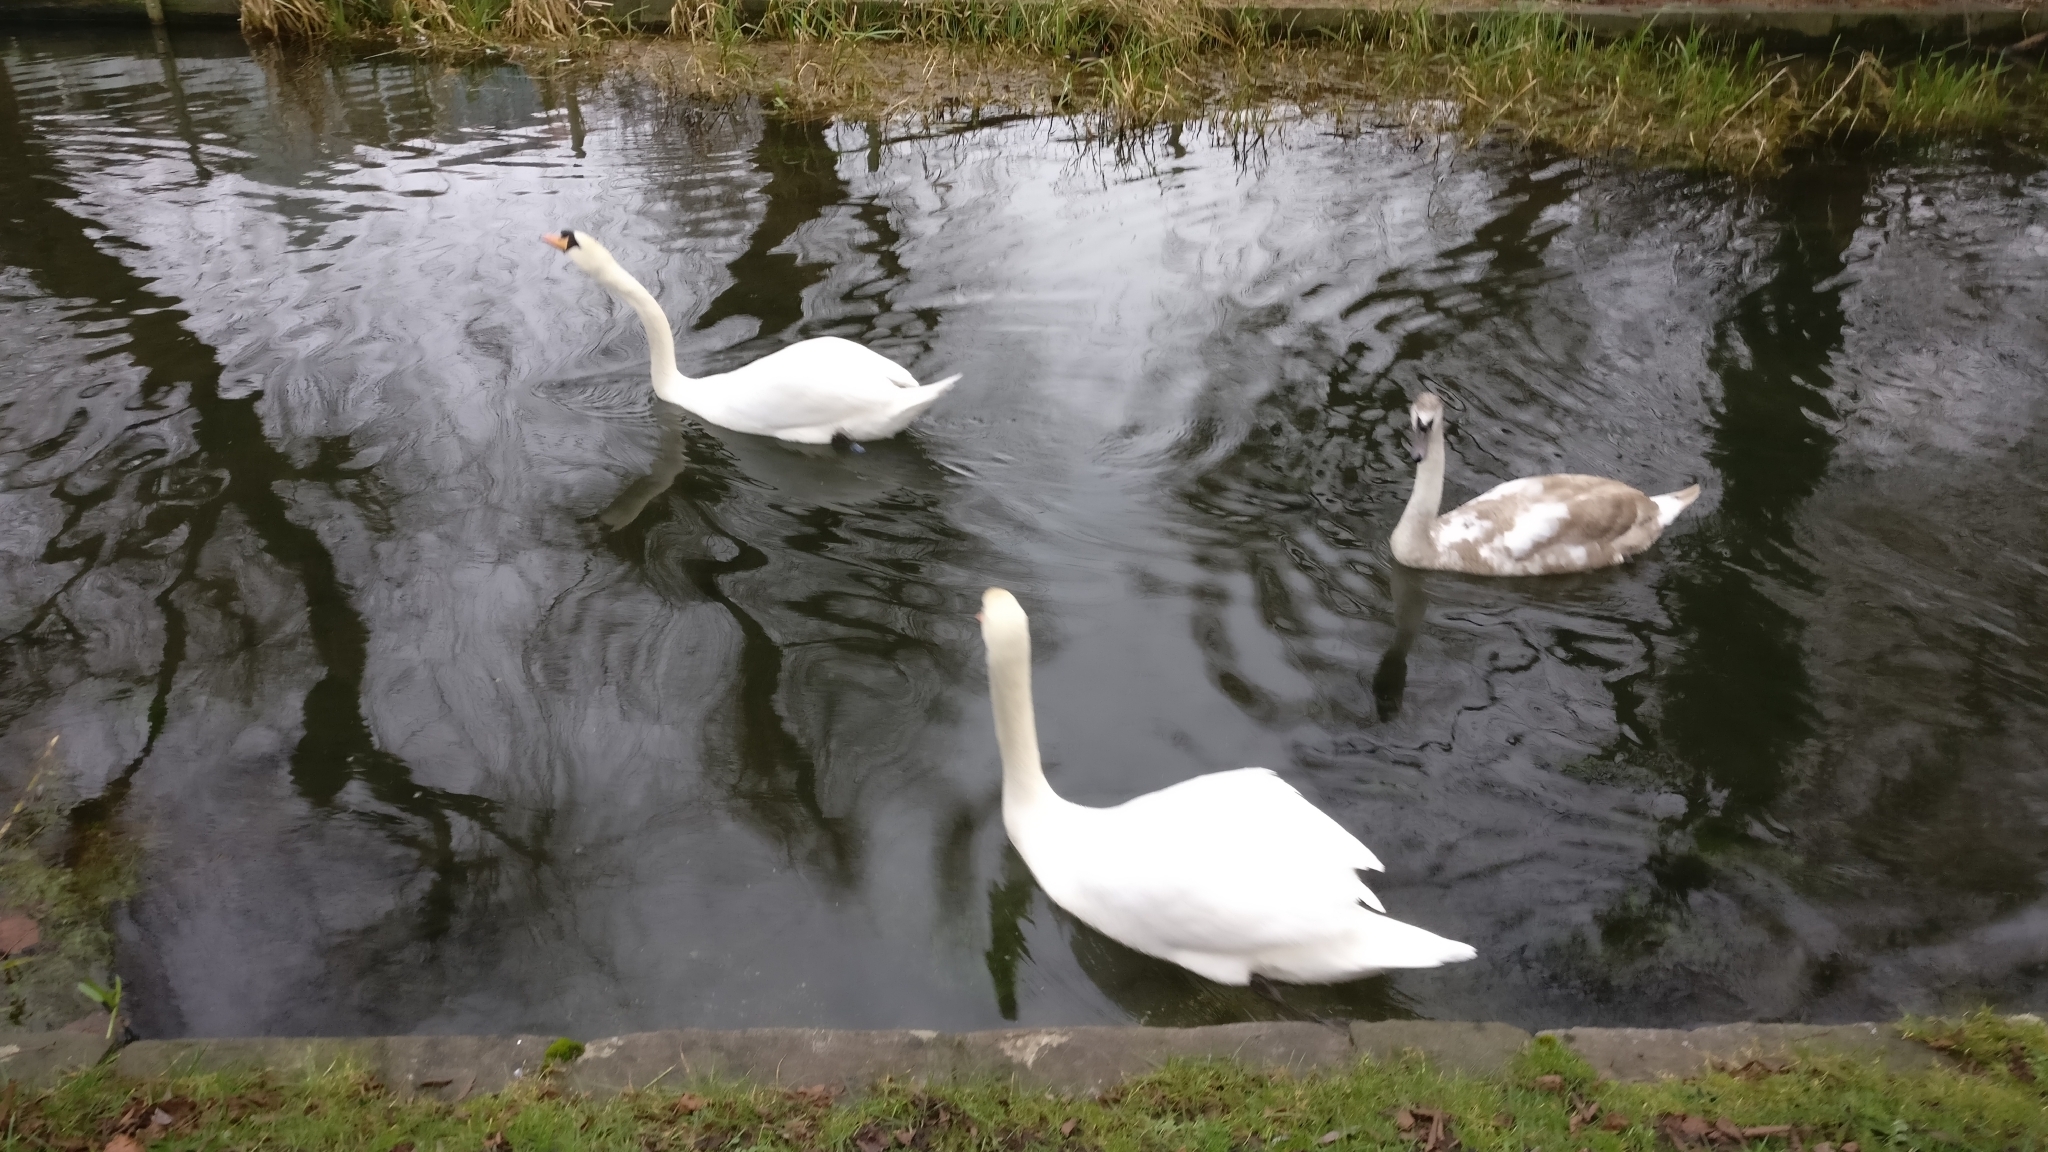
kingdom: Animalia
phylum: Chordata
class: Aves
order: Anseriformes
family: Anatidae
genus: Cygnus
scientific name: Cygnus olor
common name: Mute swan
